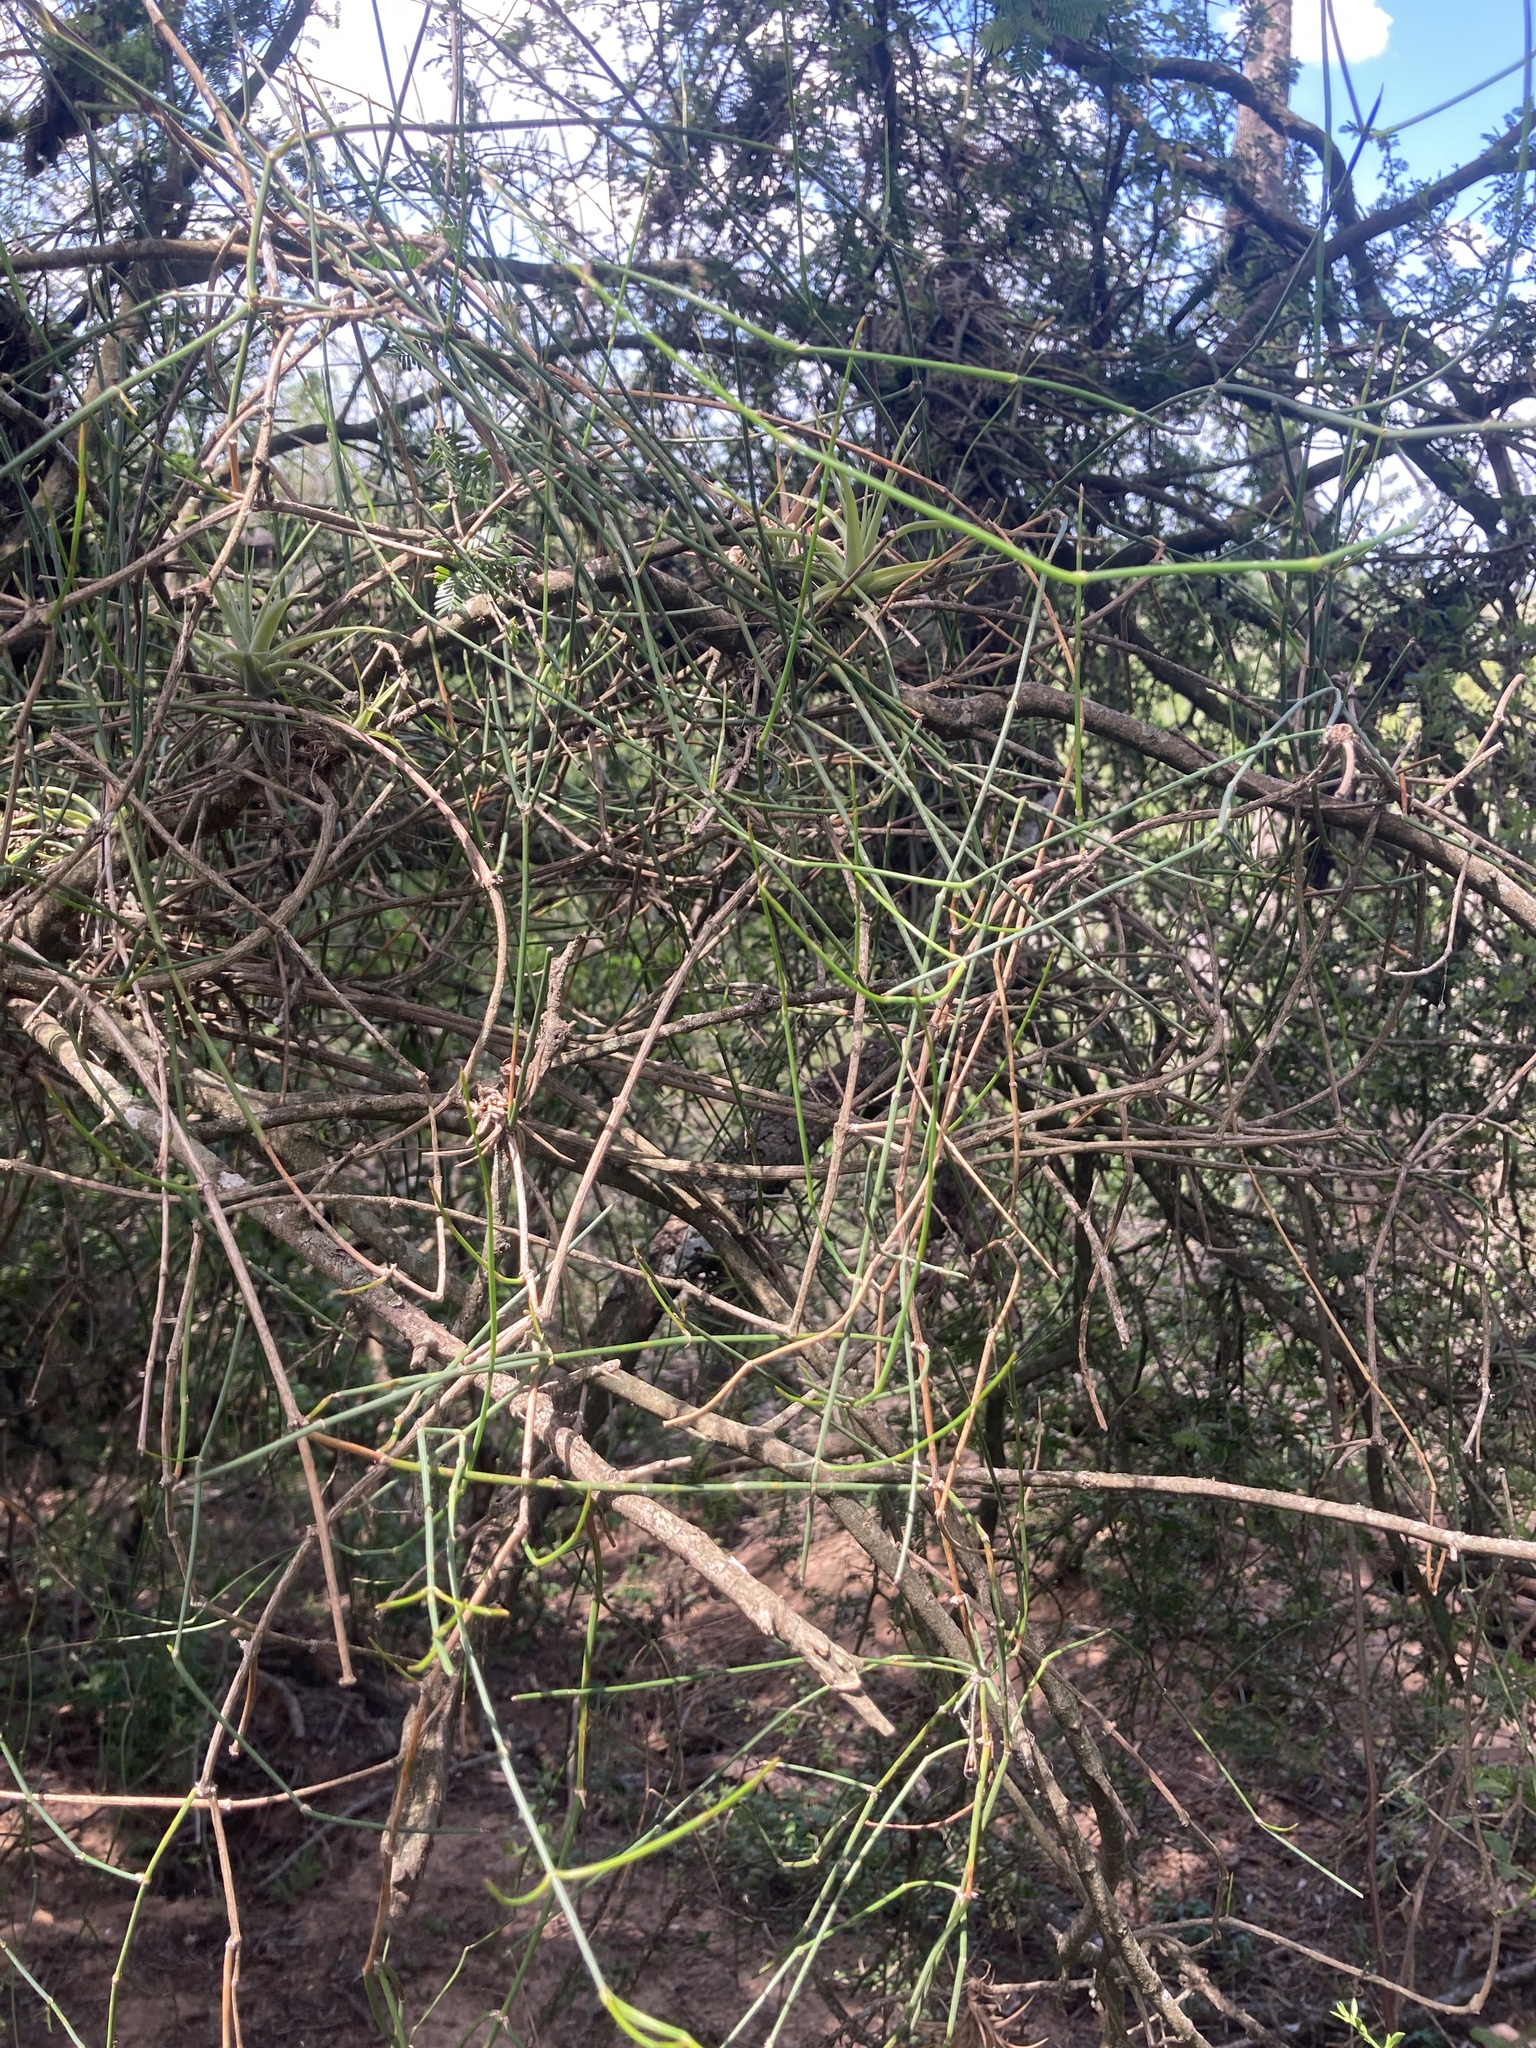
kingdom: Plantae
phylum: Tracheophyta
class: Gnetopsida
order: Ephedrales
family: Ephedraceae
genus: Ephedra
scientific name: Ephedra tweedieana
